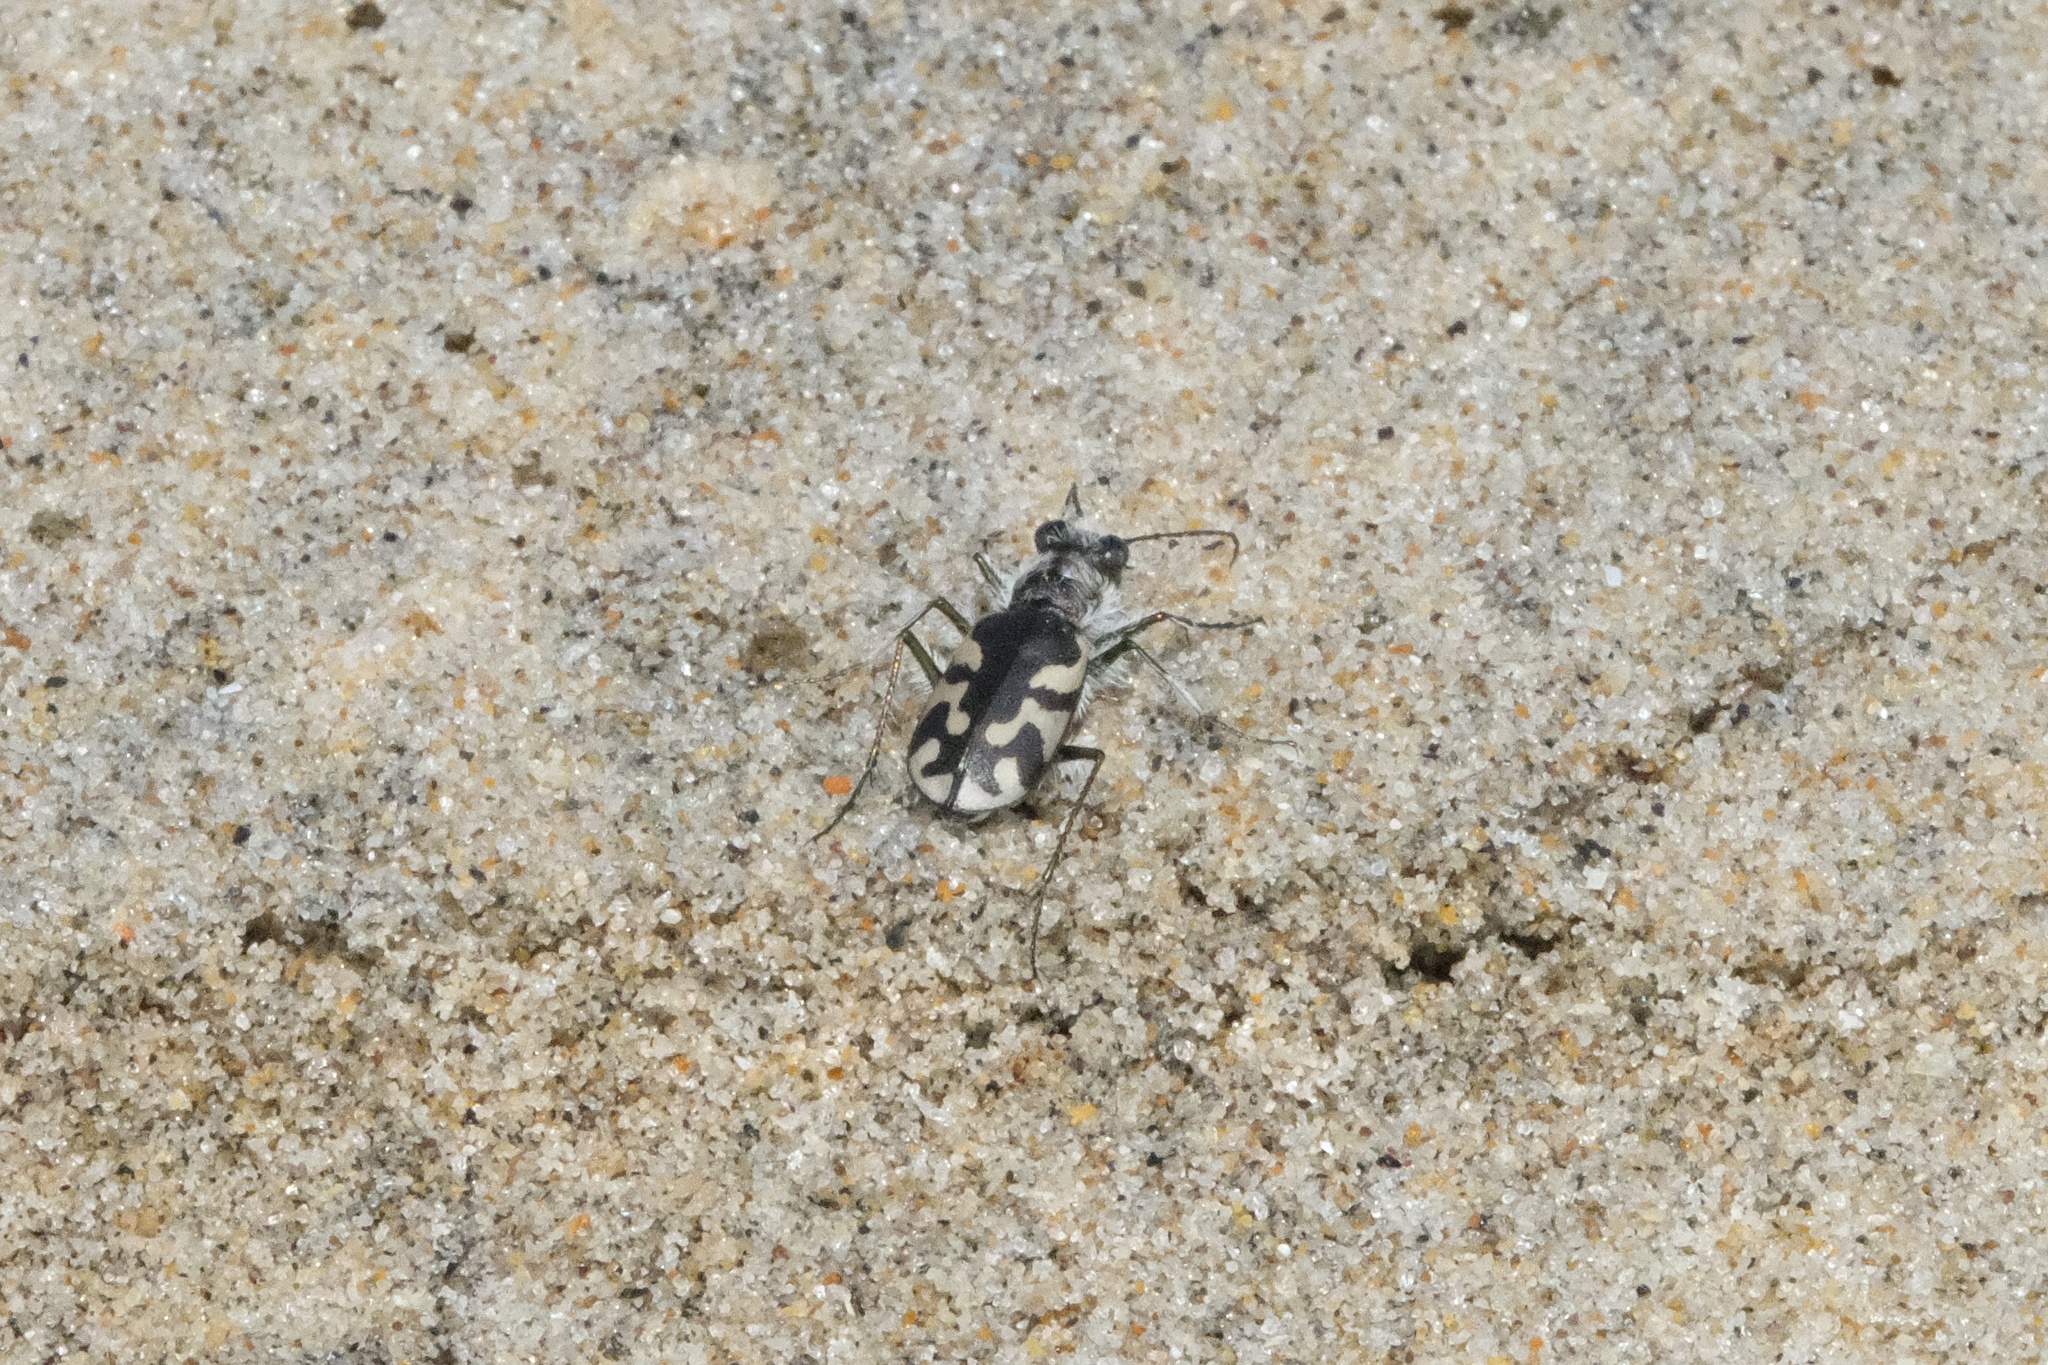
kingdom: Animalia
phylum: Arthropoda
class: Insecta
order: Coleoptera
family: Carabidae
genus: Cicindela
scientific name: Cicindela latesignata
